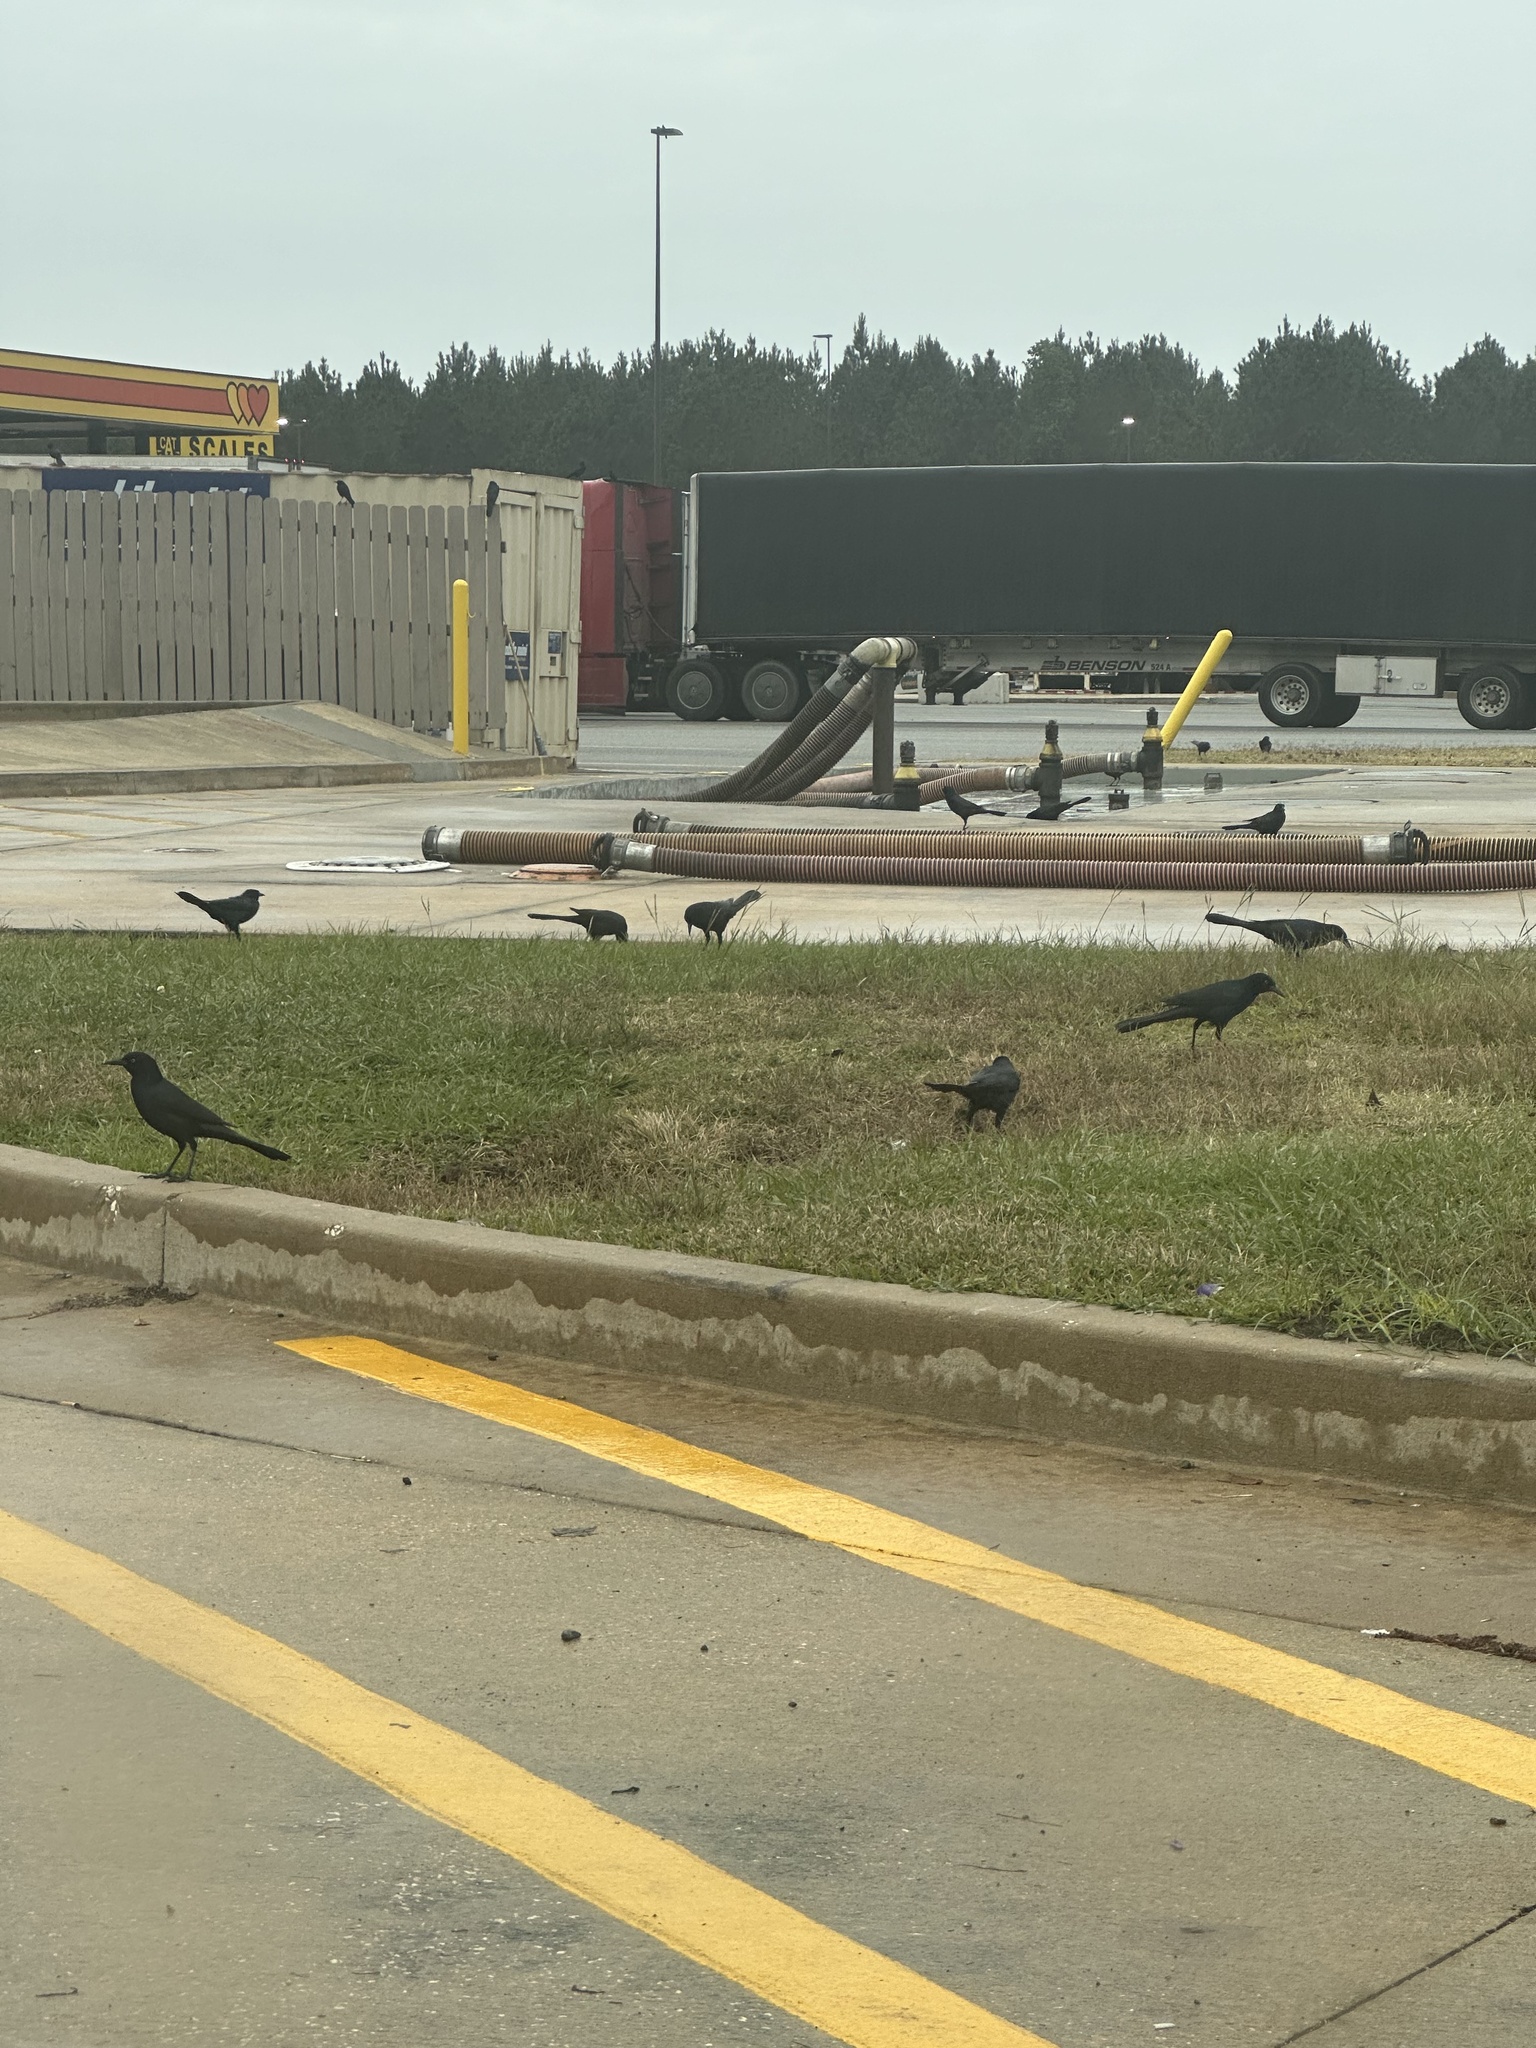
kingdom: Animalia
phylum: Chordata
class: Aves
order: Passeriformes
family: Icteridae
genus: Quiscalus
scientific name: Quiscalus major
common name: Boat-tailed grackle
